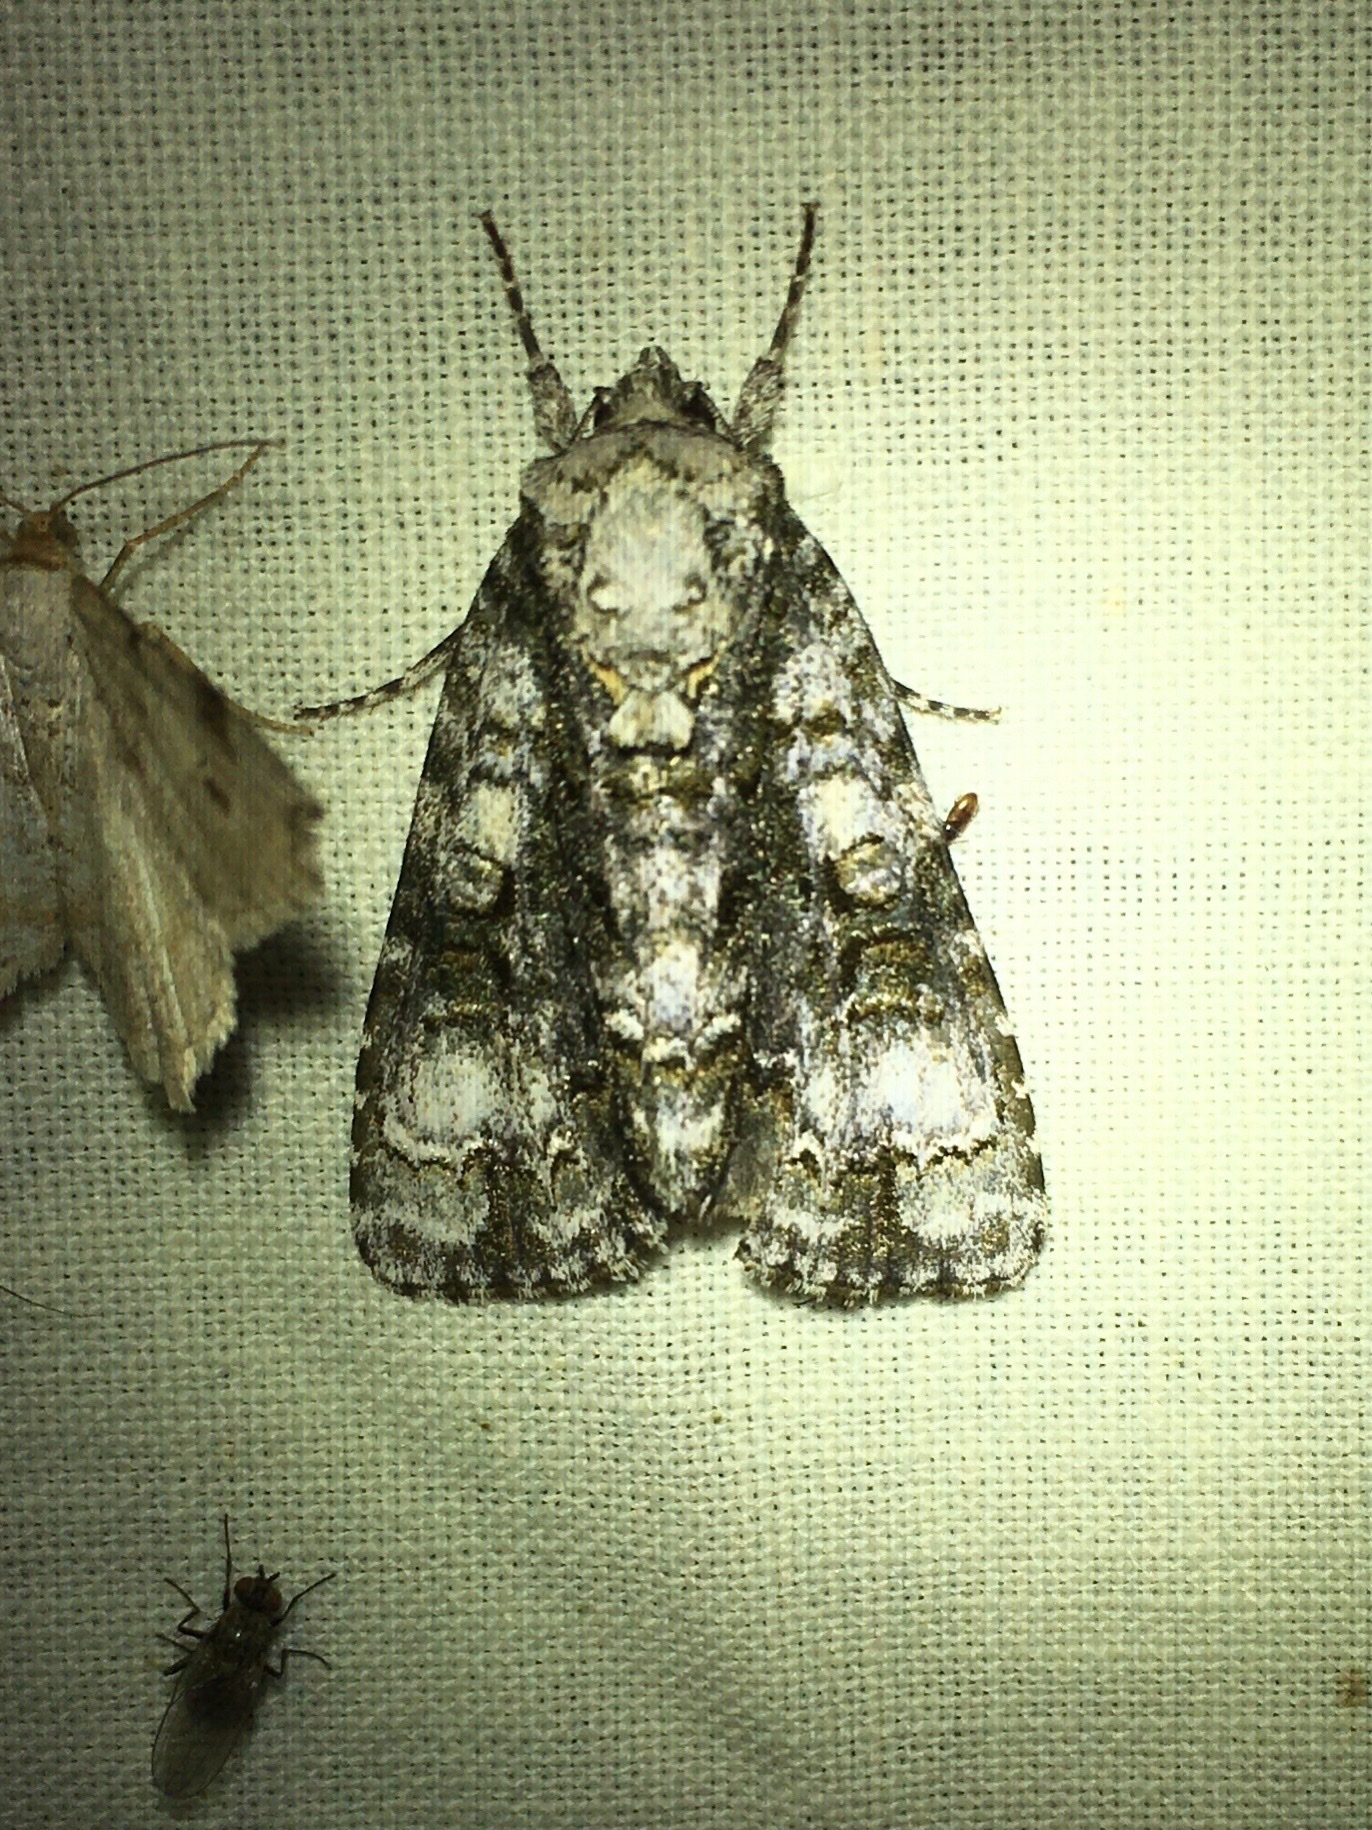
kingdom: Animalia
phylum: Arthropoda
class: Insecta
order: Lepidoptera
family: Noctuidae
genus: Acronicta
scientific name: Acronicta superans
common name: Splendid dagger
